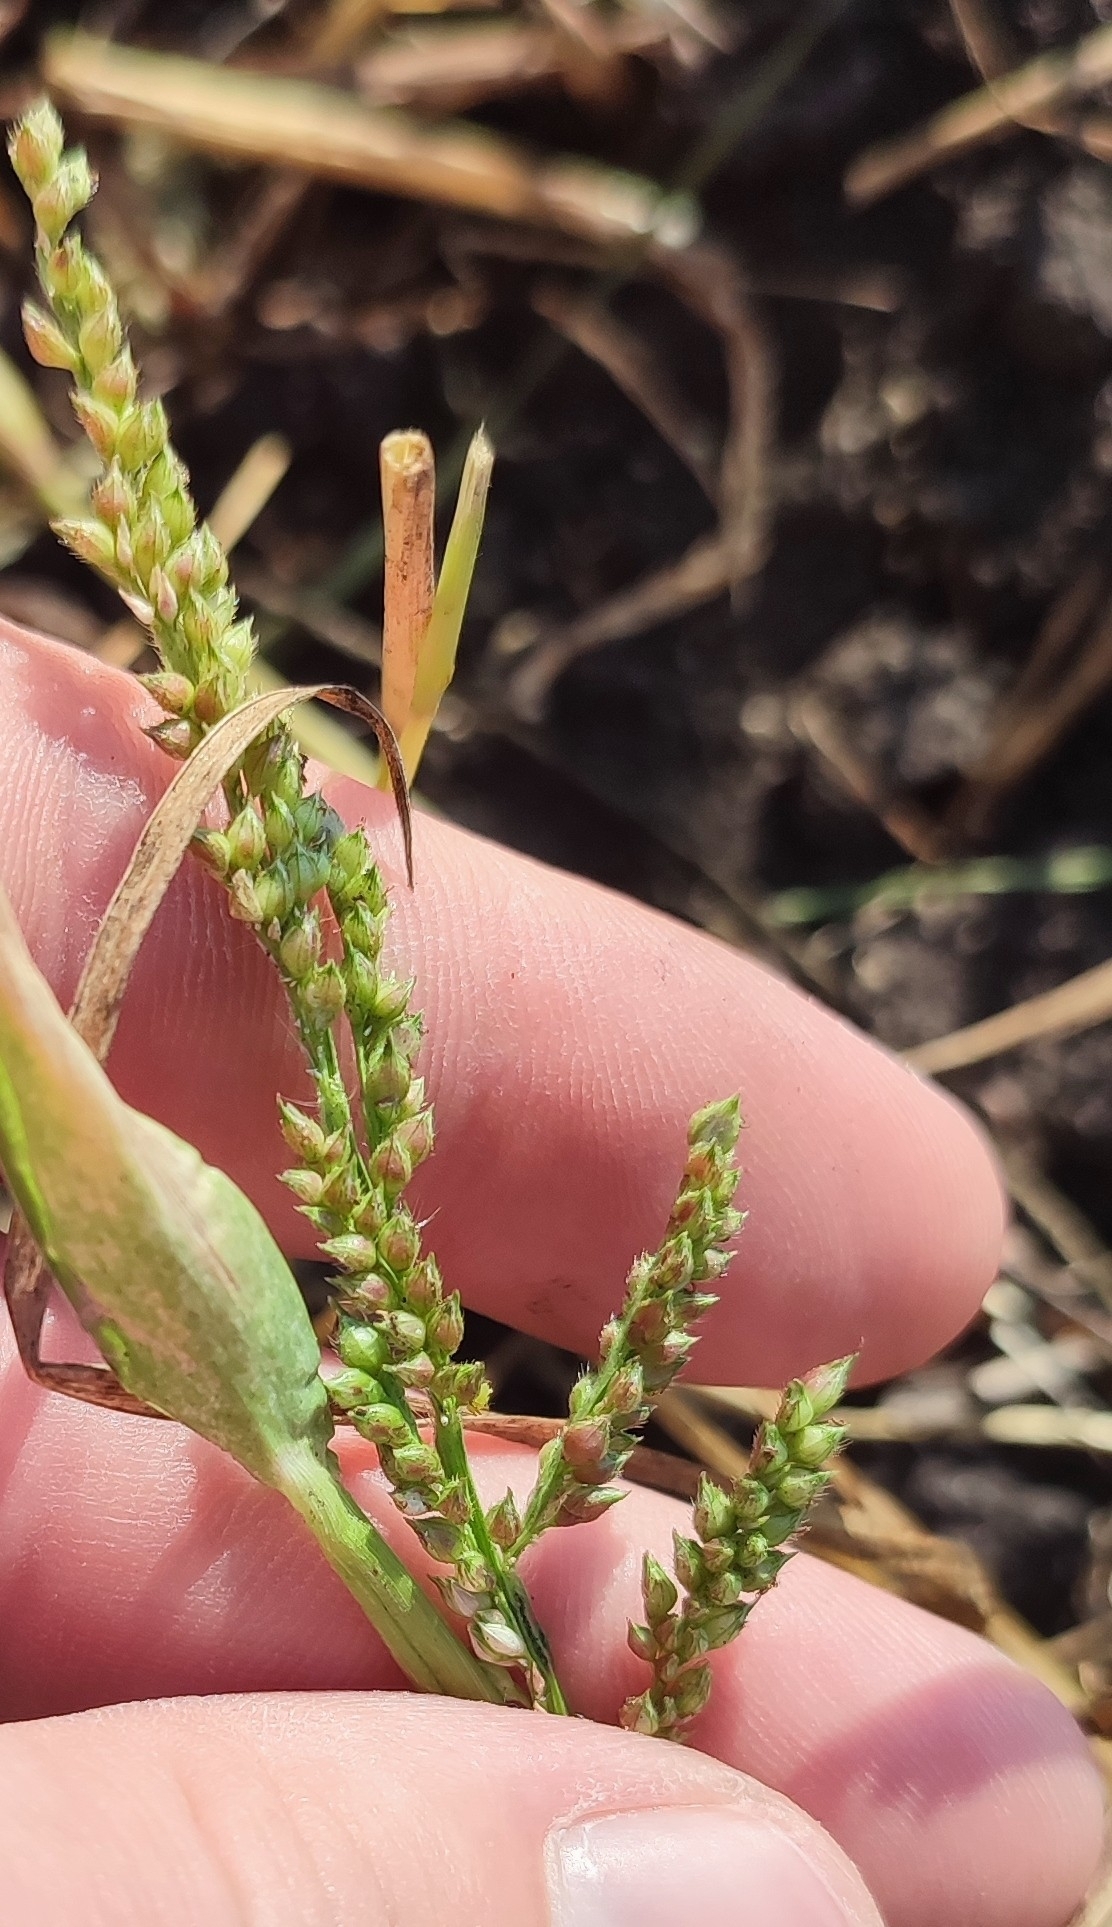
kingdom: Plantae
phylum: Tracheophyta
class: Liliopsida
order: Poales
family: Poaceae
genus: Echinochloa
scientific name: Echinochloa crus-galli
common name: Cockspur
